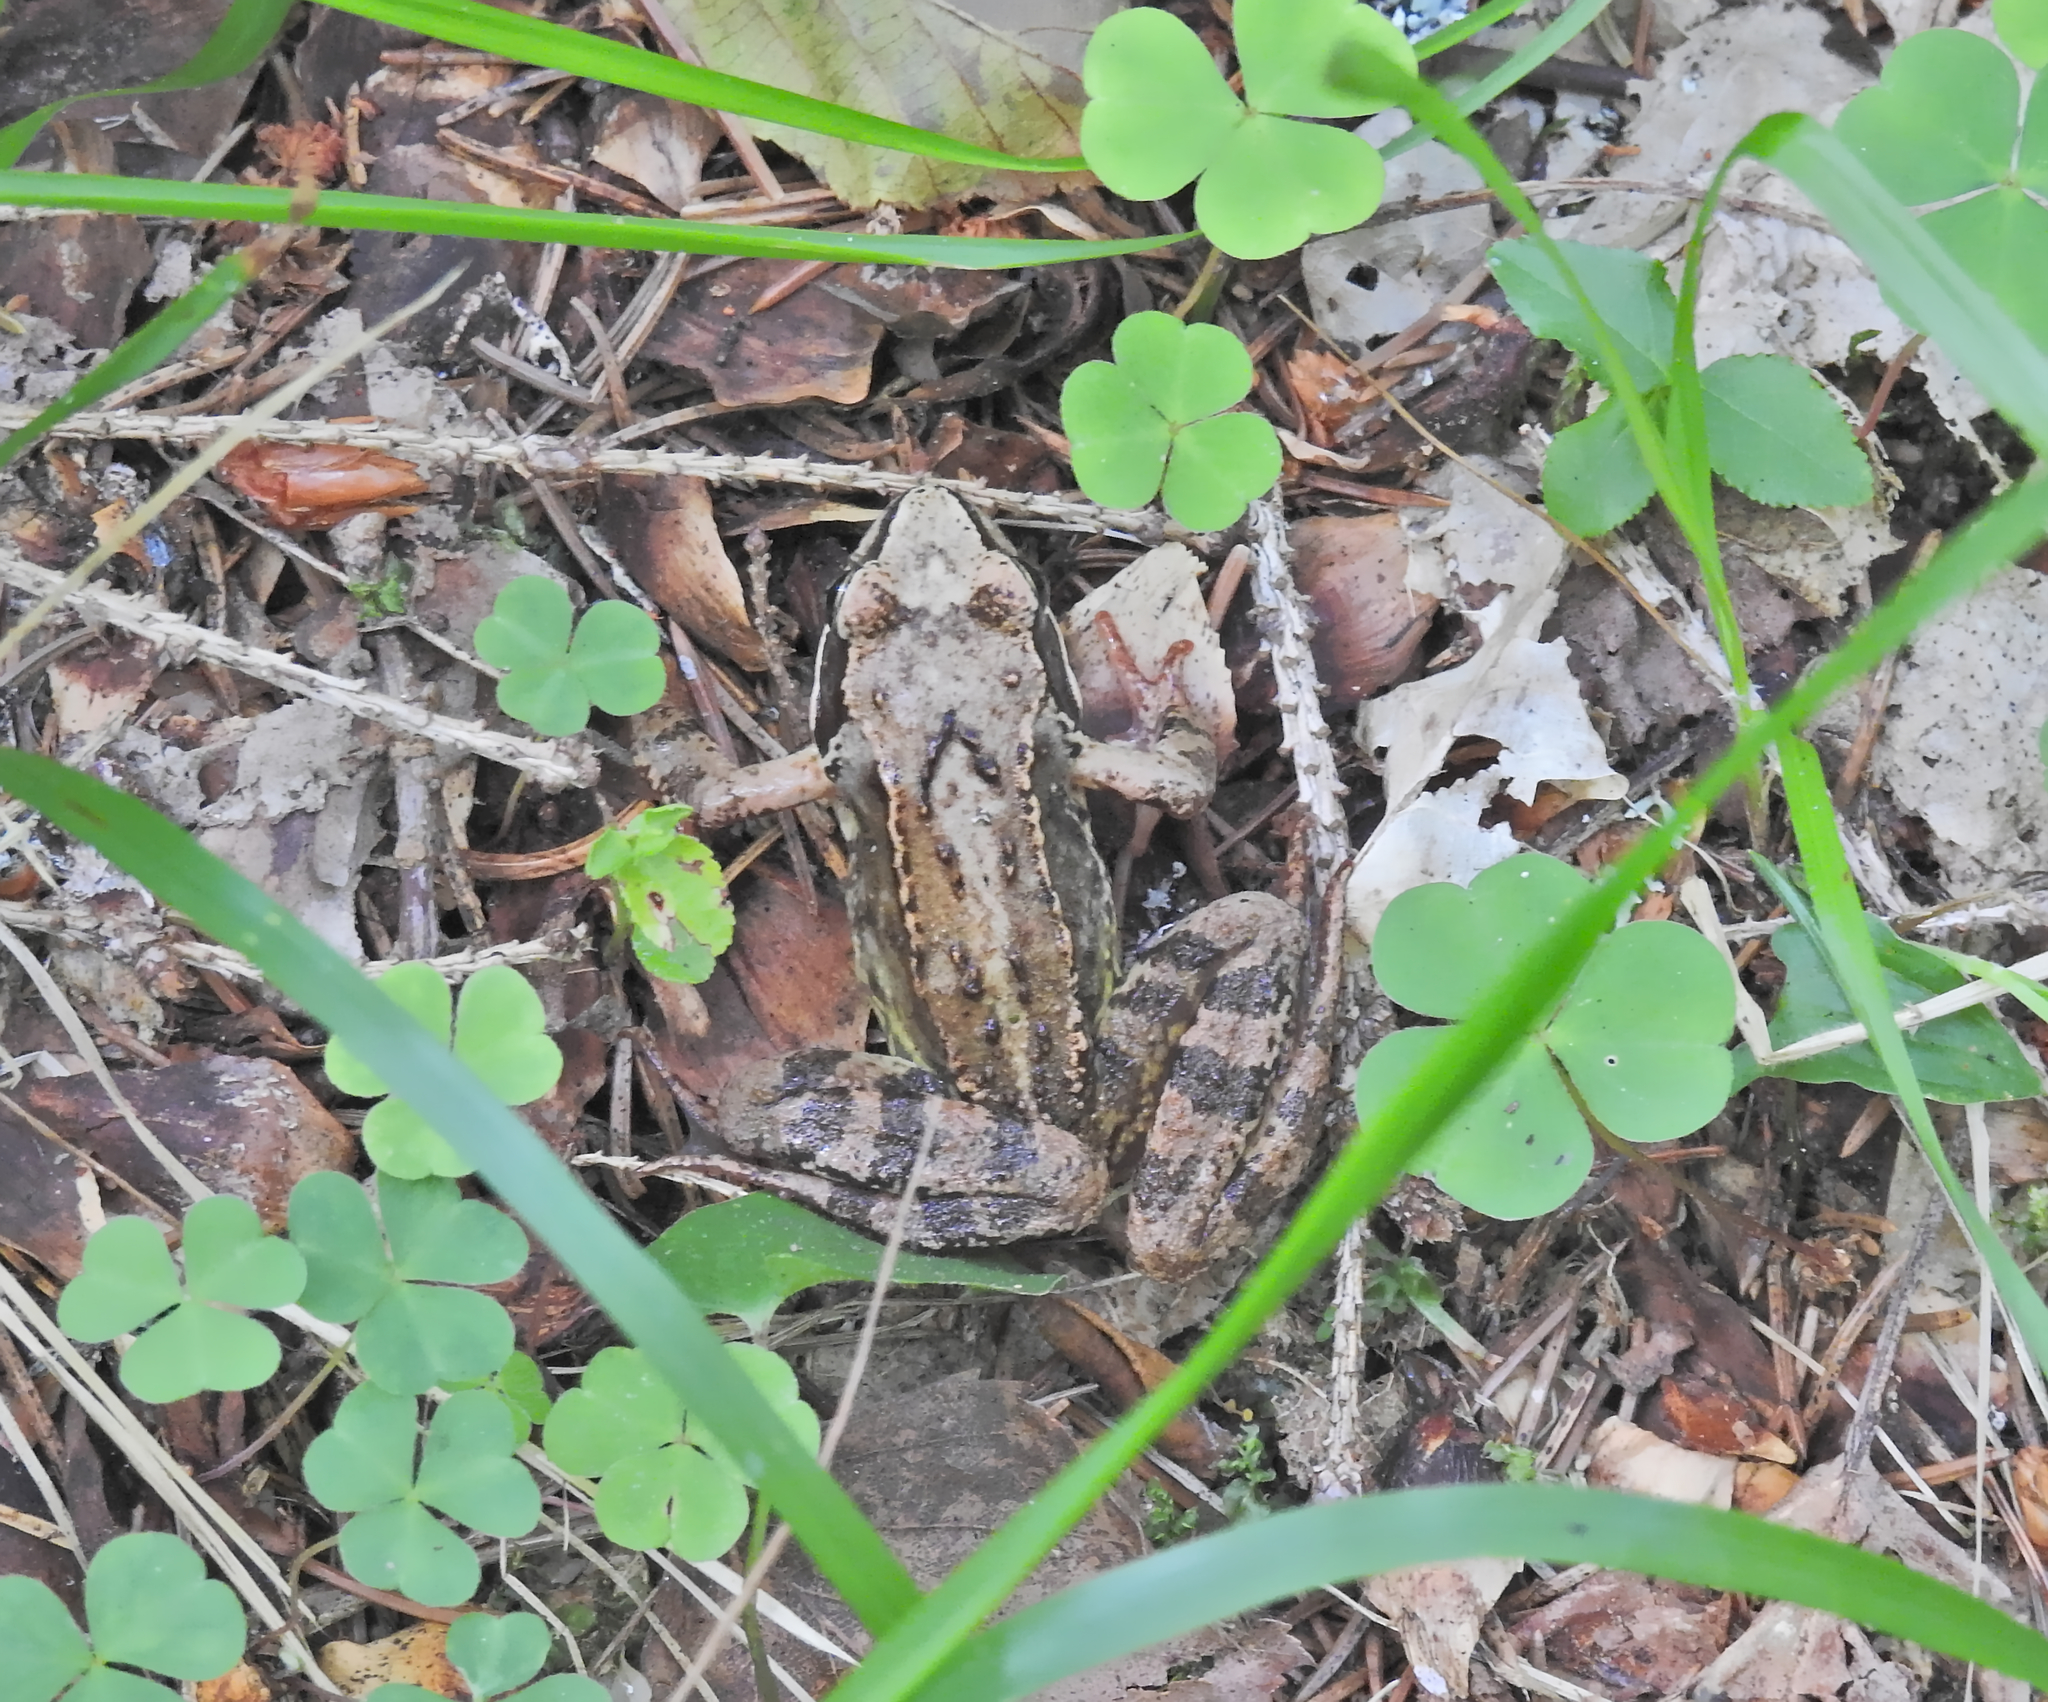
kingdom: Animalia
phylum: Chordata
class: Amphibia
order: Anura
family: Ranidae
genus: Rana
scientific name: Rana temporaria
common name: Common frog
